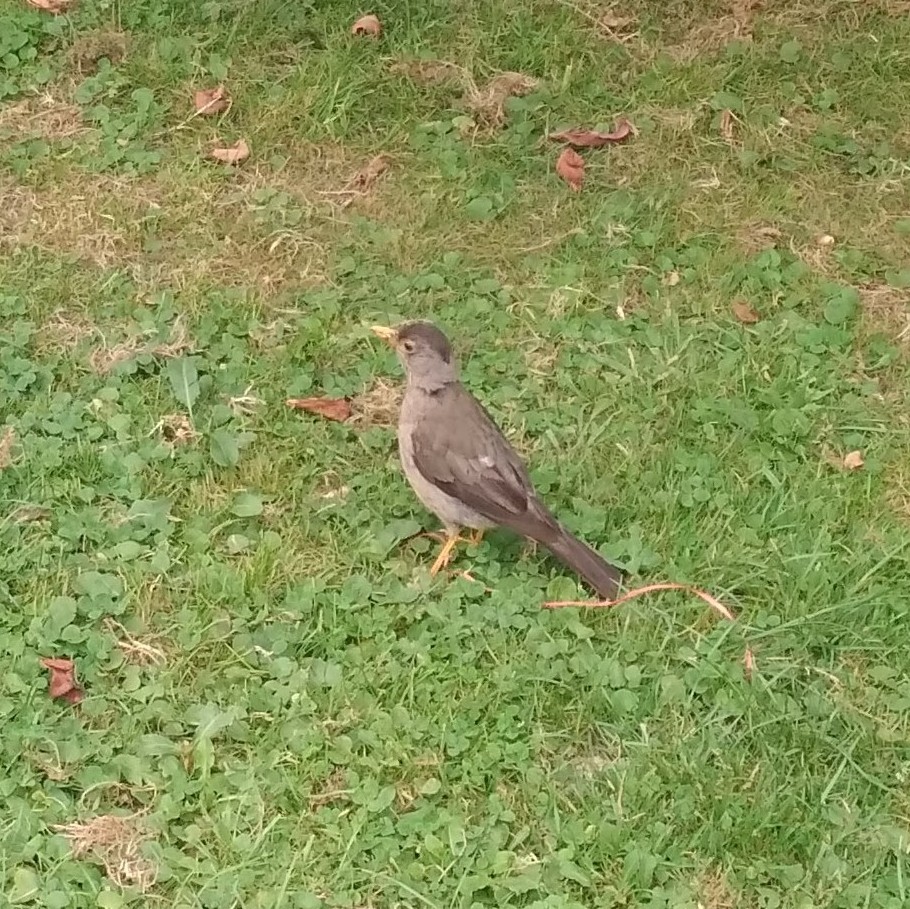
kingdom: Animalia
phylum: Chordata
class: Aves
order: Passeriformes
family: Turdidae
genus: Turdus
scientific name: Turdus falcklandii
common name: Austral thrush
